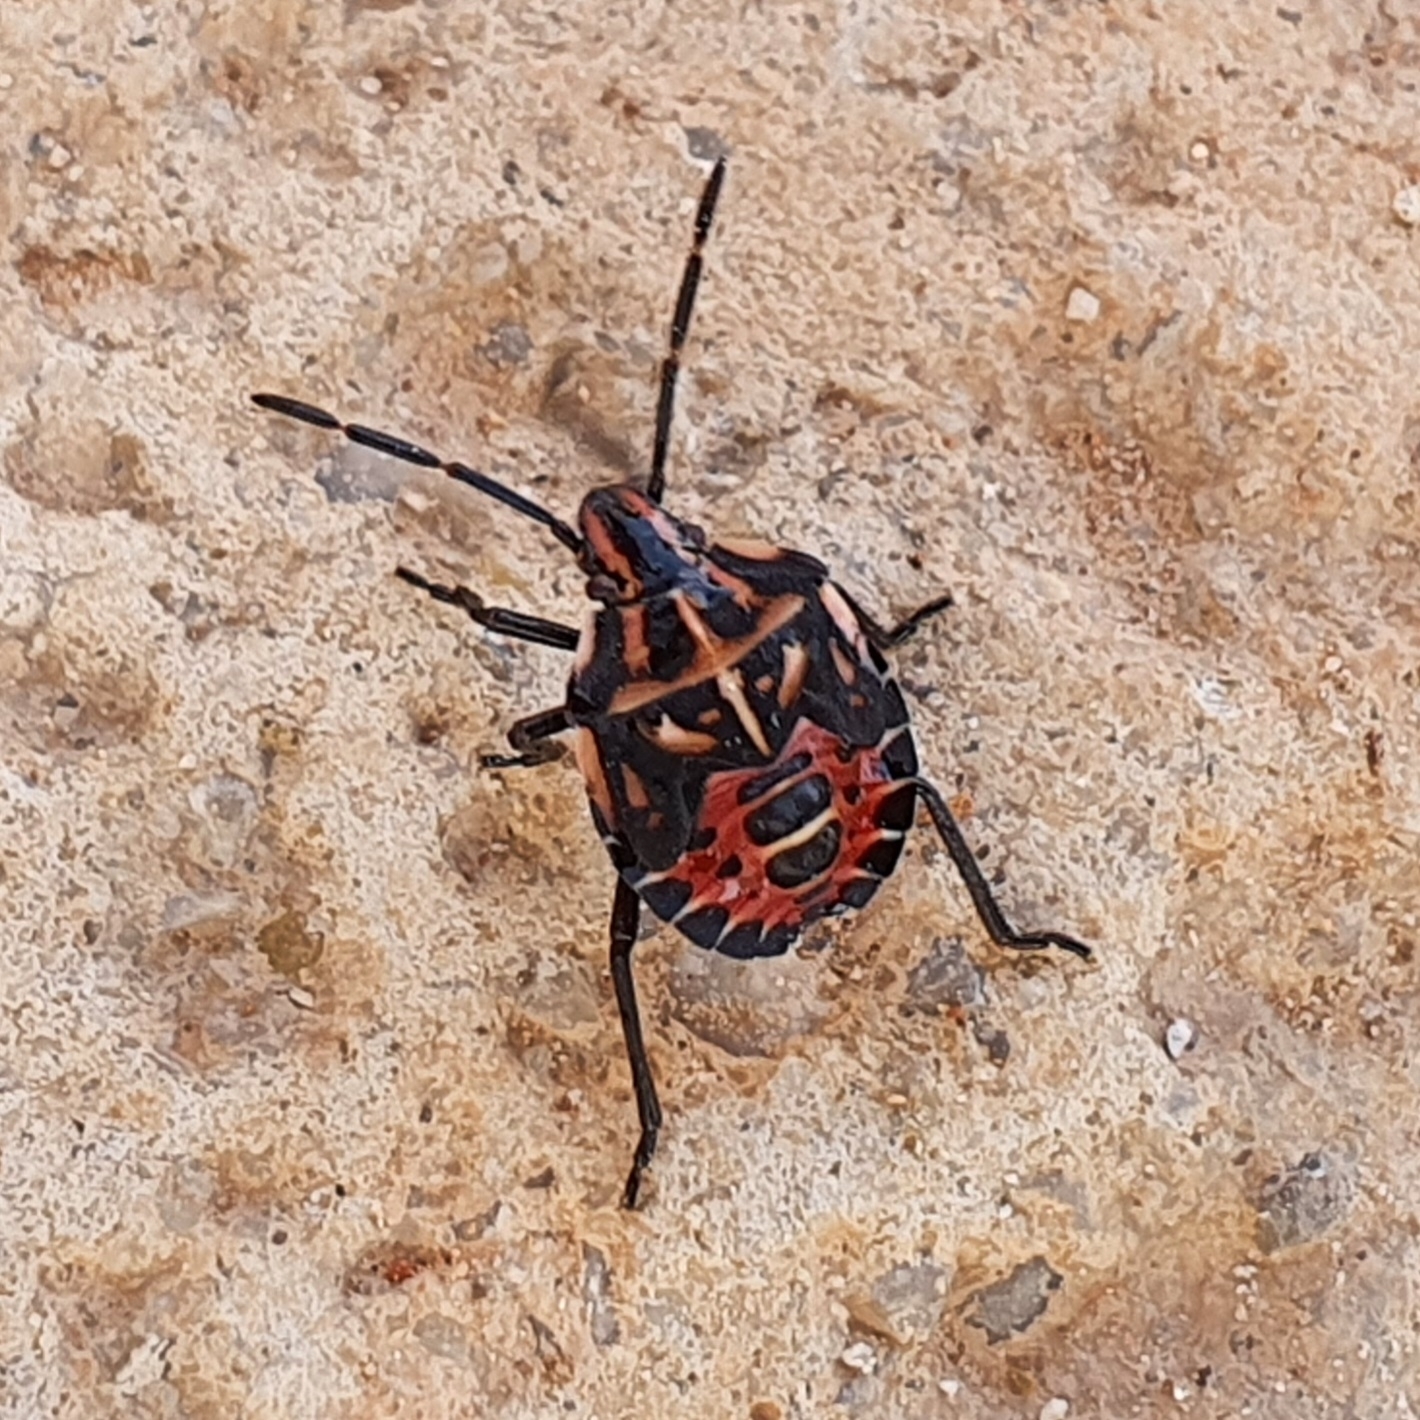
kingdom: Animalia
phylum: Arthropoda
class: Insecta
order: Hemiptera
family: Miridae
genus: Orthops
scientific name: Orthops kalmii
